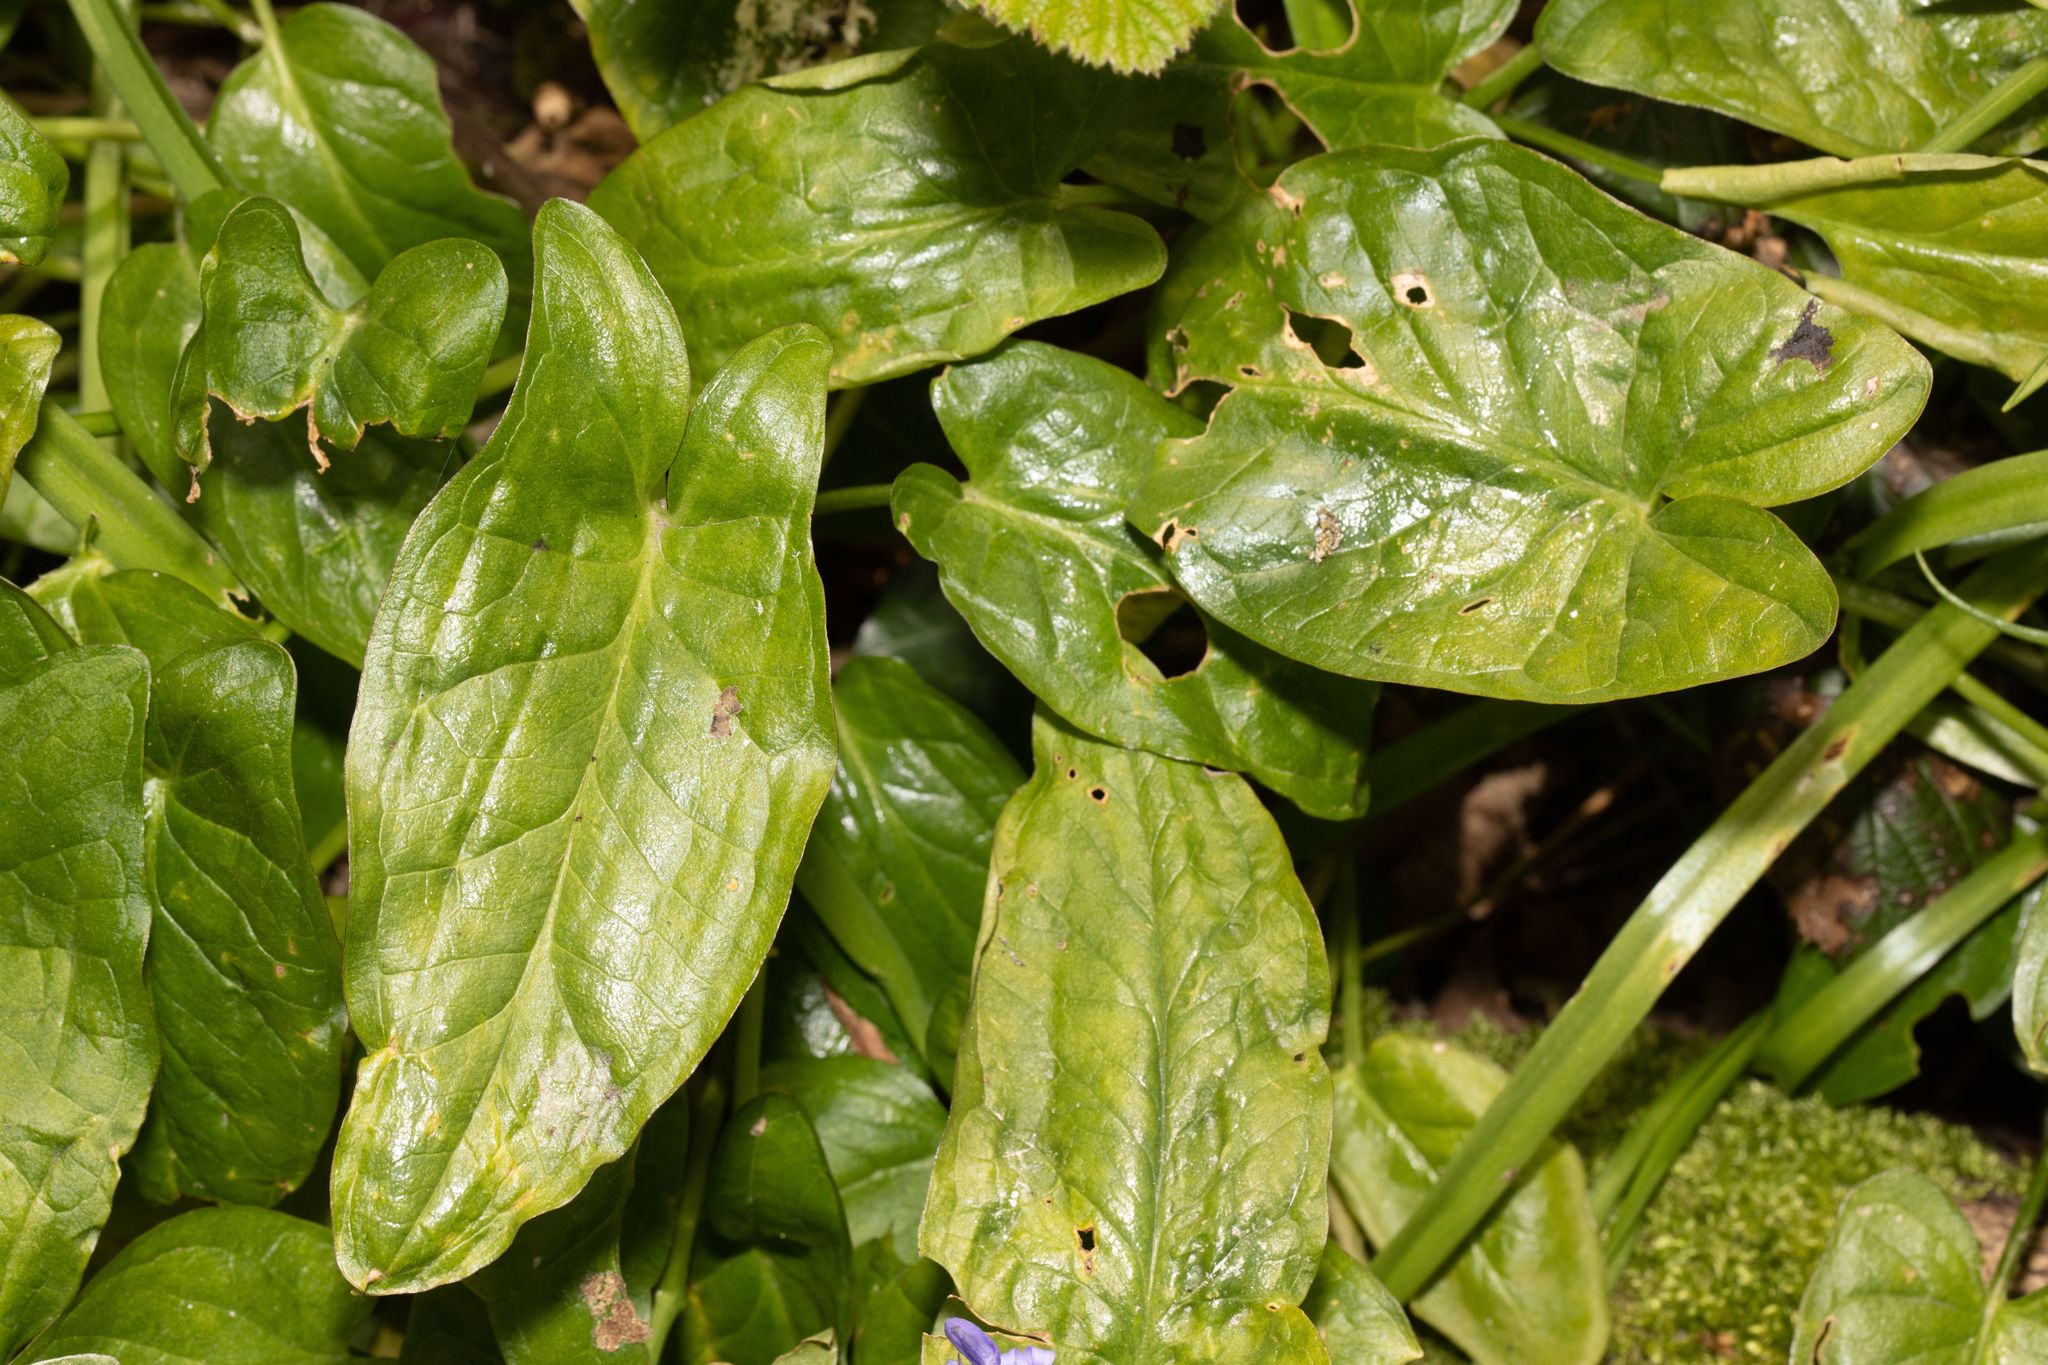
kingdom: Plantae
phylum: Tracheophyta
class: Liliopsida
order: Alismatales
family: Araceae
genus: Arum
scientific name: Arum maculatum
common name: Lords-and-ladies
